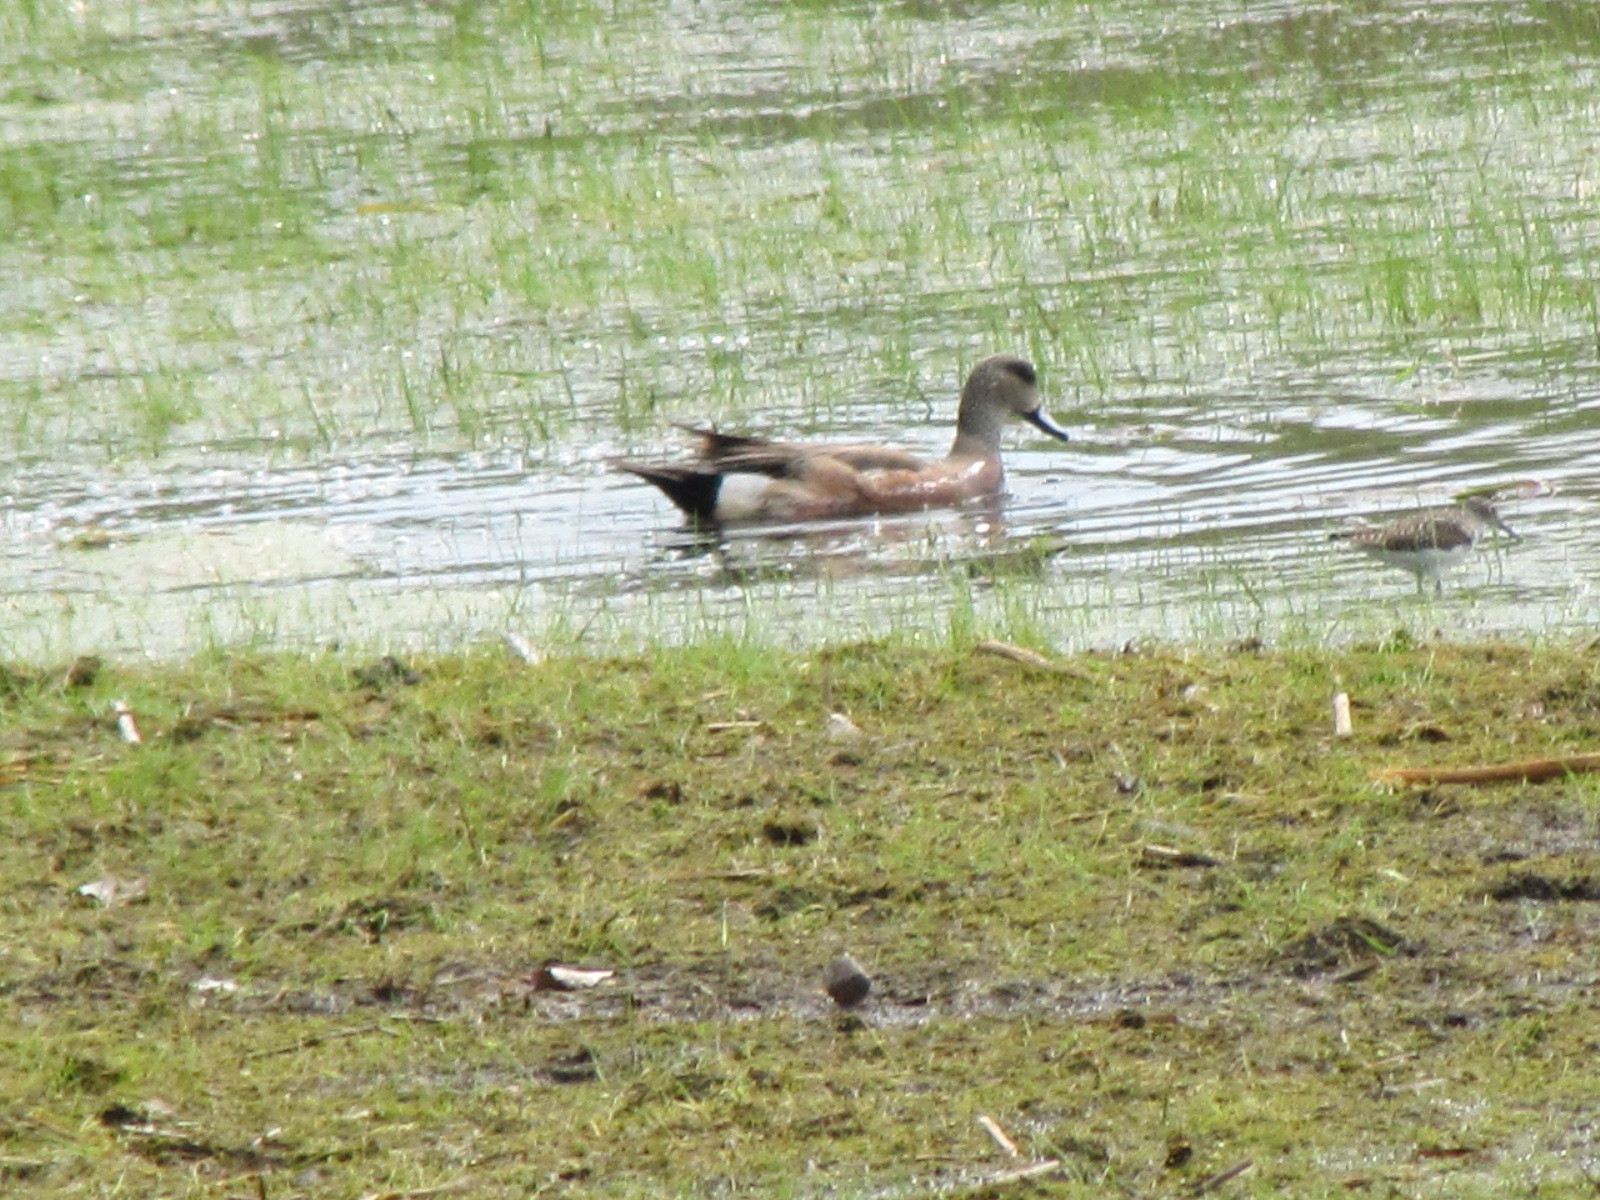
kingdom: Animalia
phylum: Chordata
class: Aves
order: Anseriformes
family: Anatidae
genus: Mareca
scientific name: Mareca americana
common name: American wigeon
